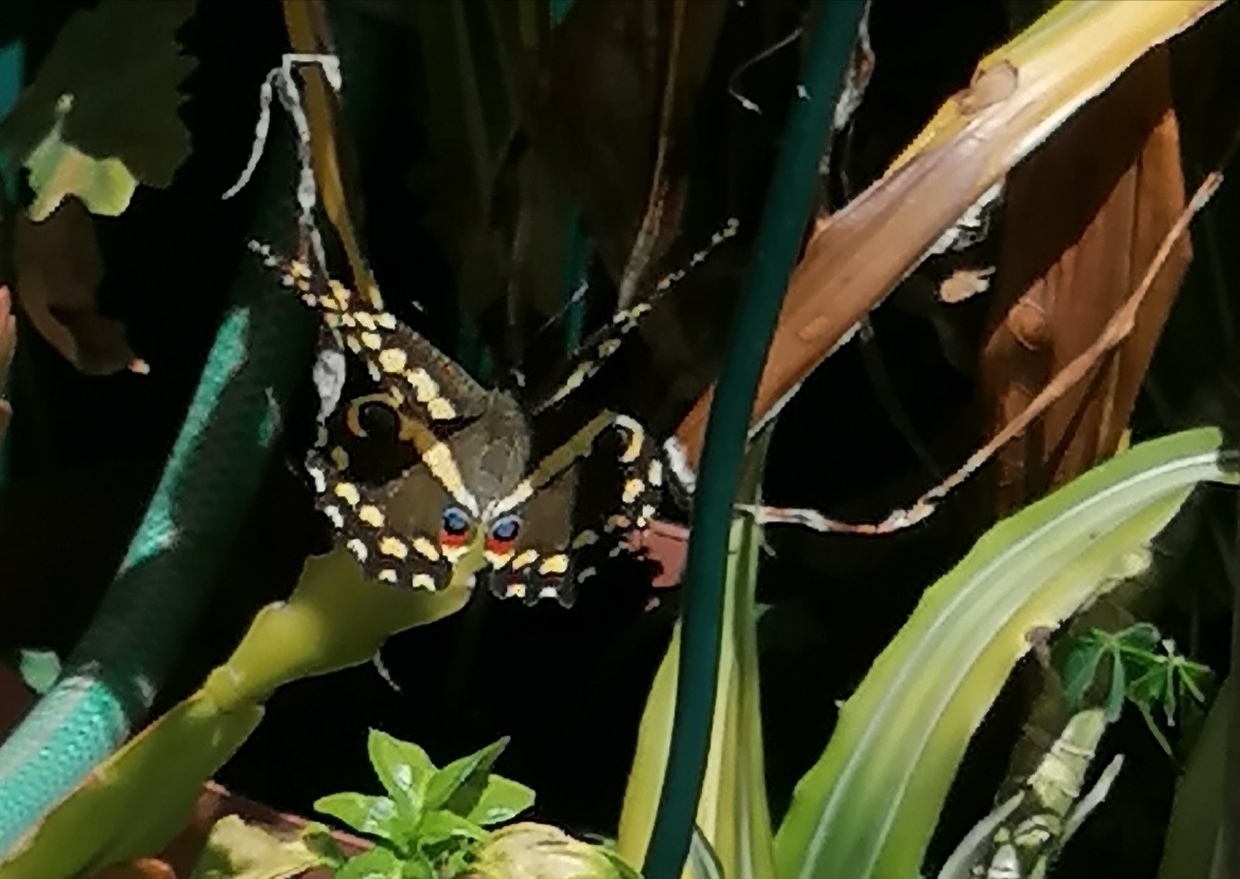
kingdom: Animalia
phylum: Arthropoda
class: Insecta
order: Lepidoptera
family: Papilionidae
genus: Papilio
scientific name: Papilio demodocus
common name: Christmas butterfly
